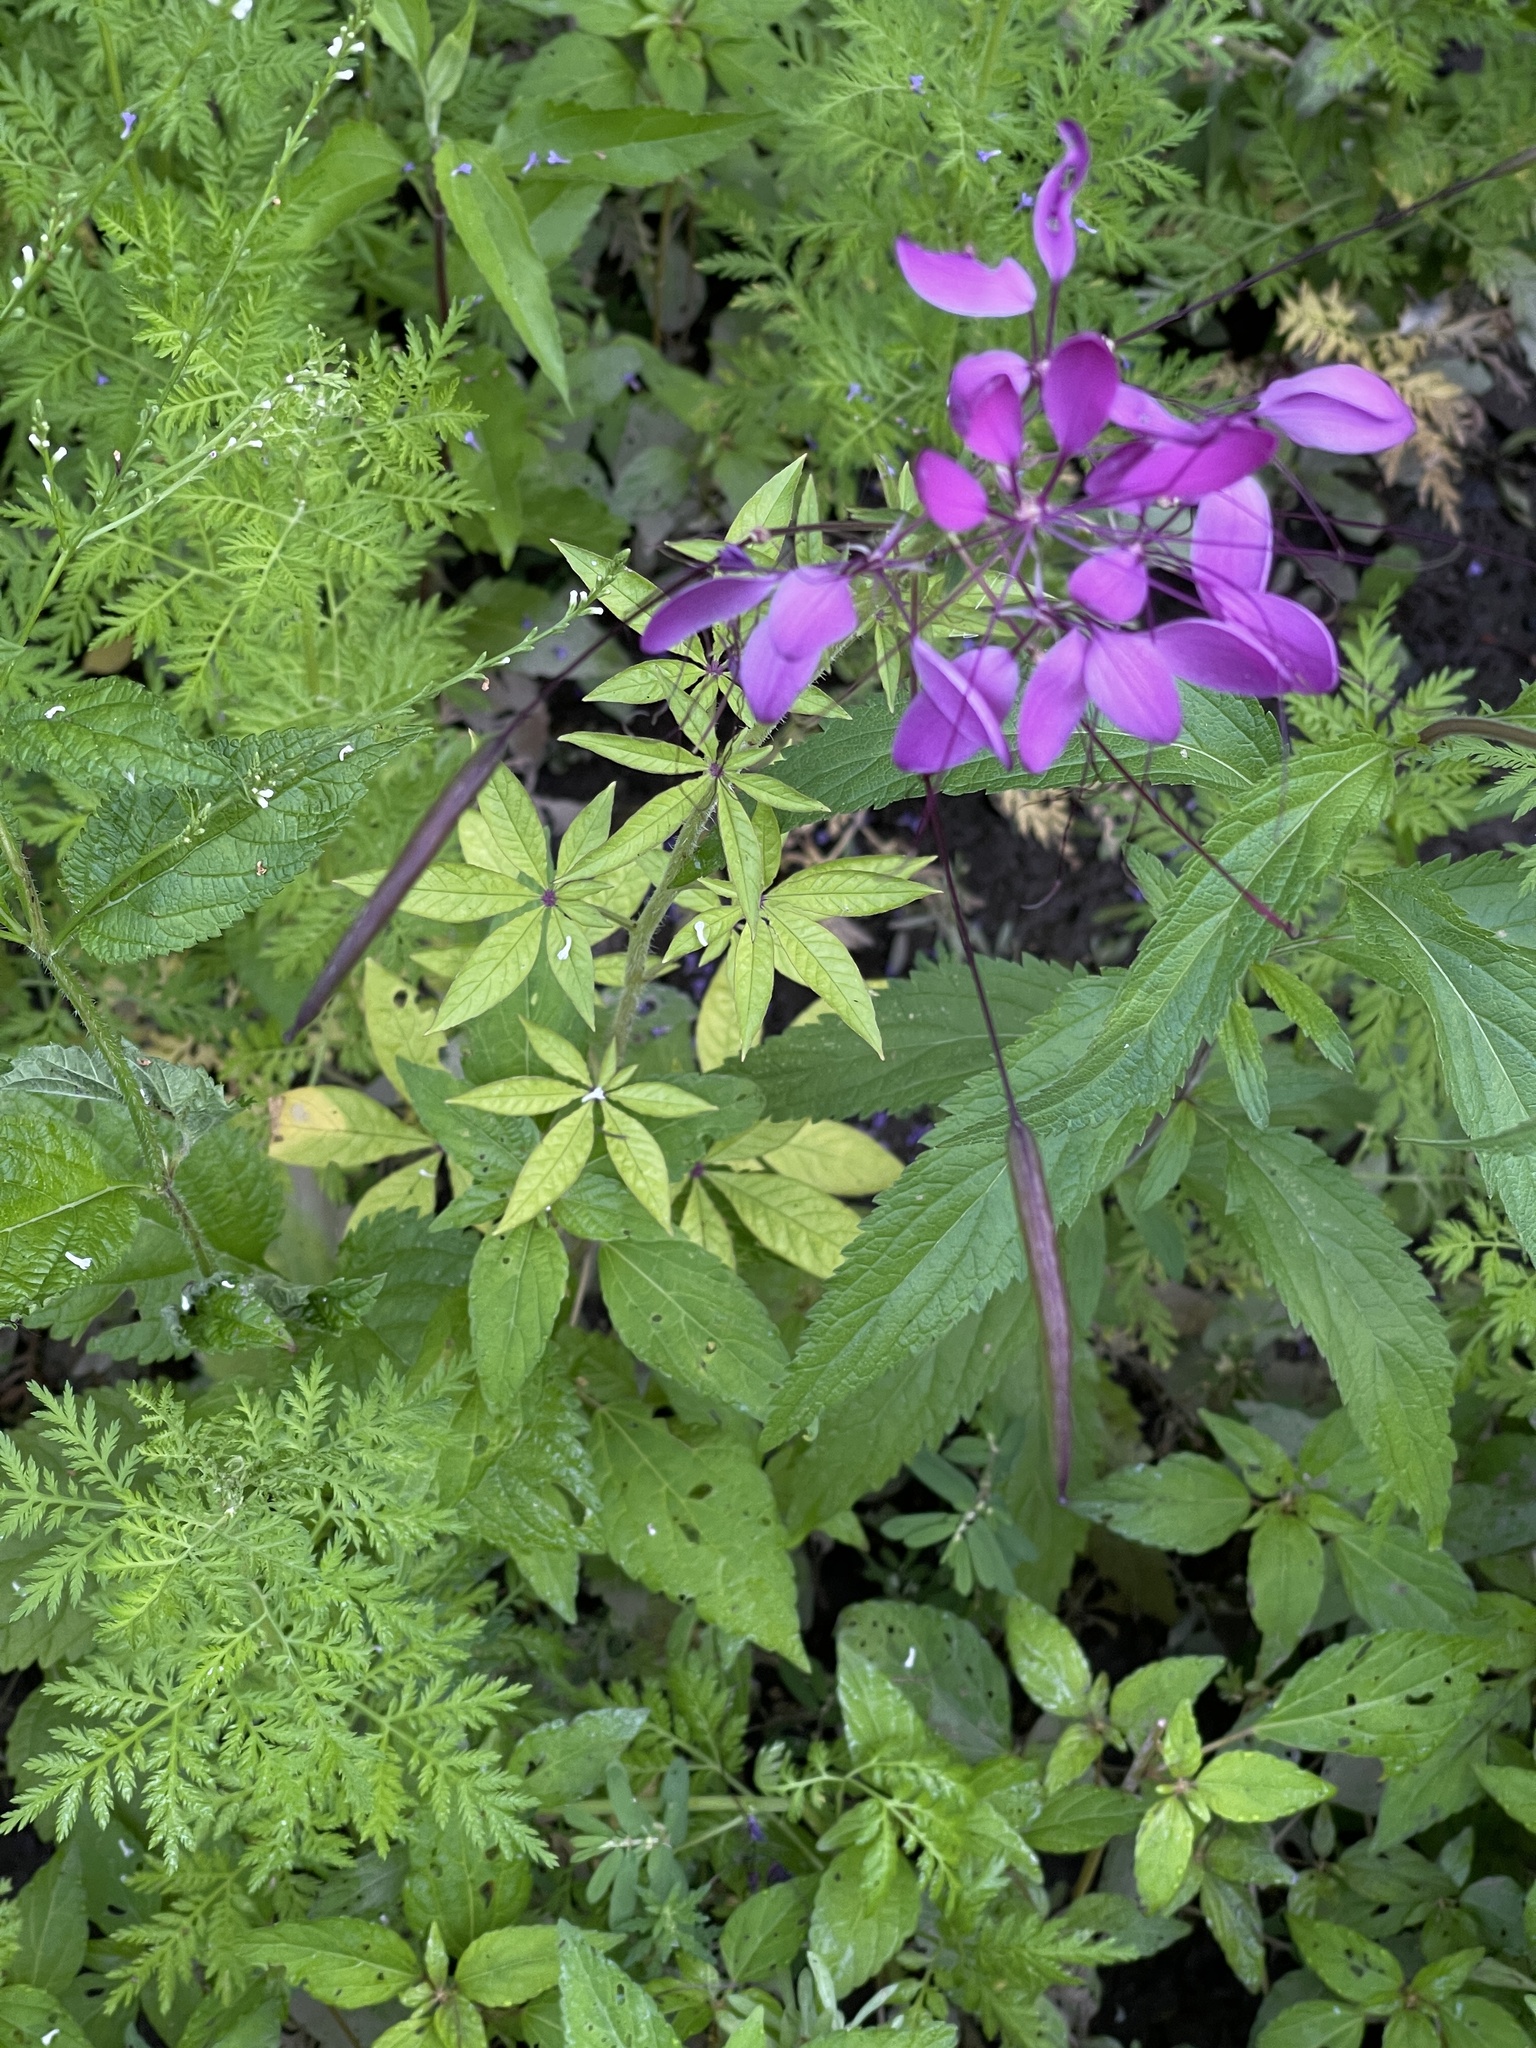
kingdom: Plantae
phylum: Tracheophyta
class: Magnoliopsida
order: Brassicales
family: Cleomaceae
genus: Tarenaya
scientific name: Tarenaya houtteana
